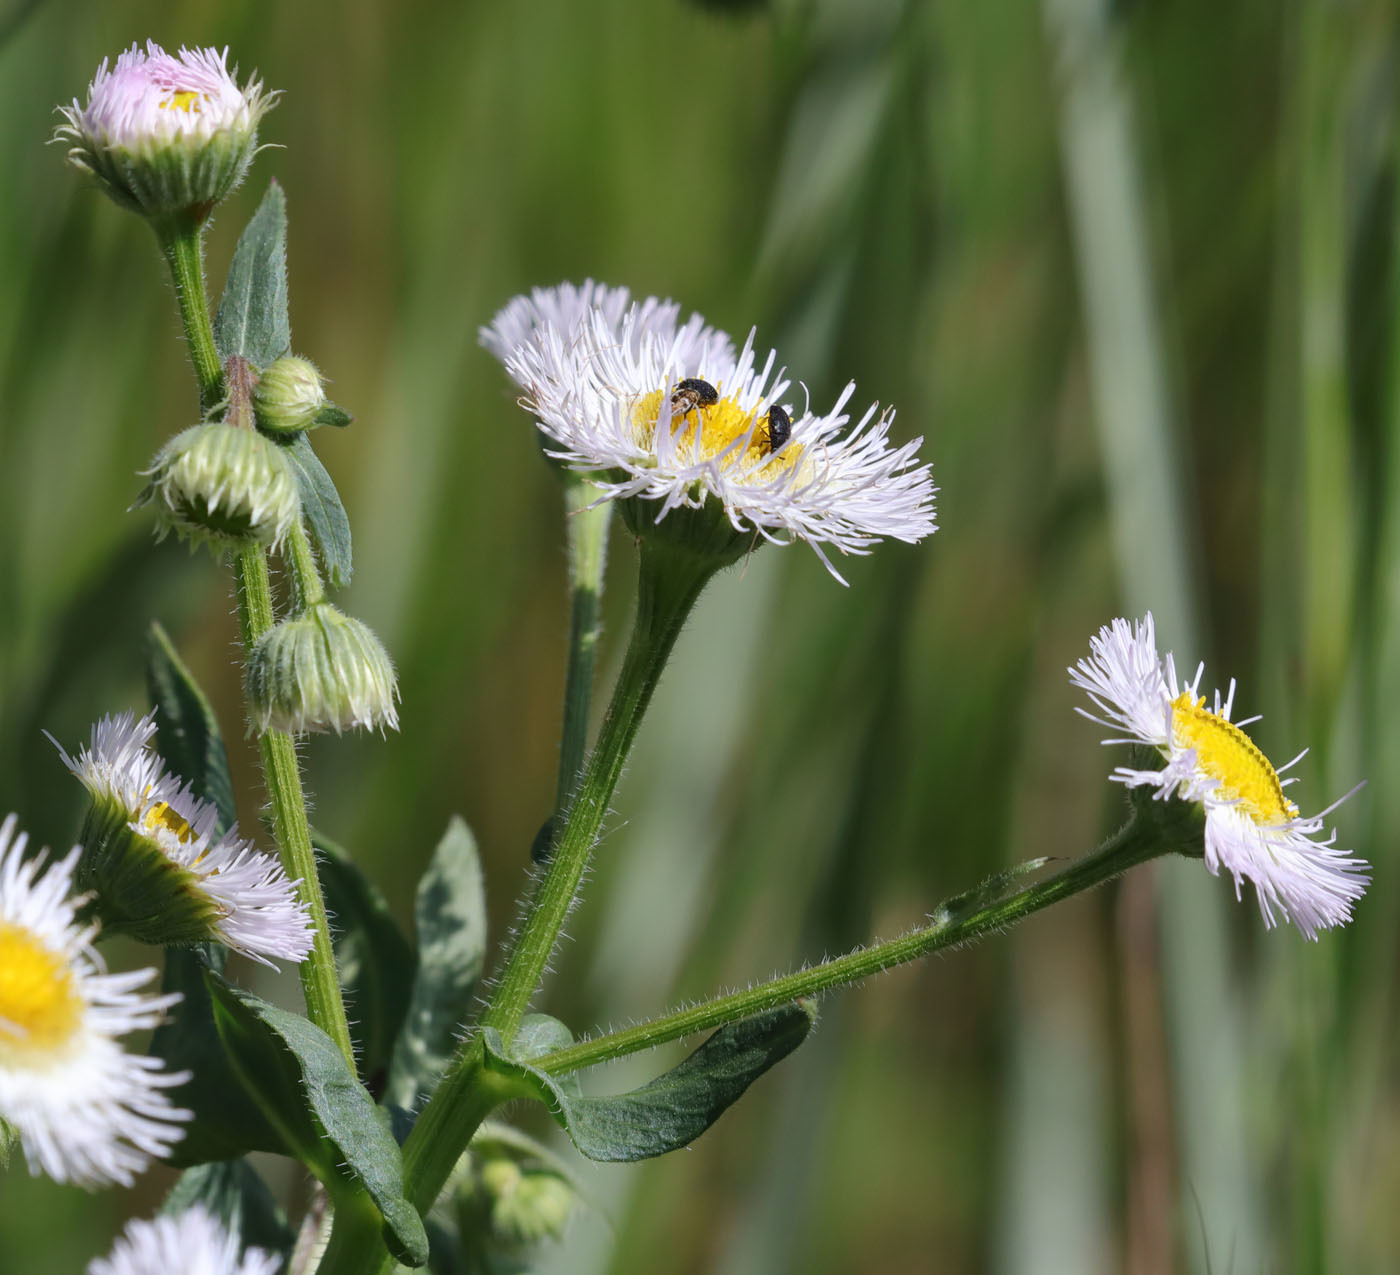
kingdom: Plantae
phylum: Tracheophyta
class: Magnoliopsida
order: Asterales
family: Asteraceae
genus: Erigeron
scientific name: Erigeron philadelphicus
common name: Robin's-plantain
